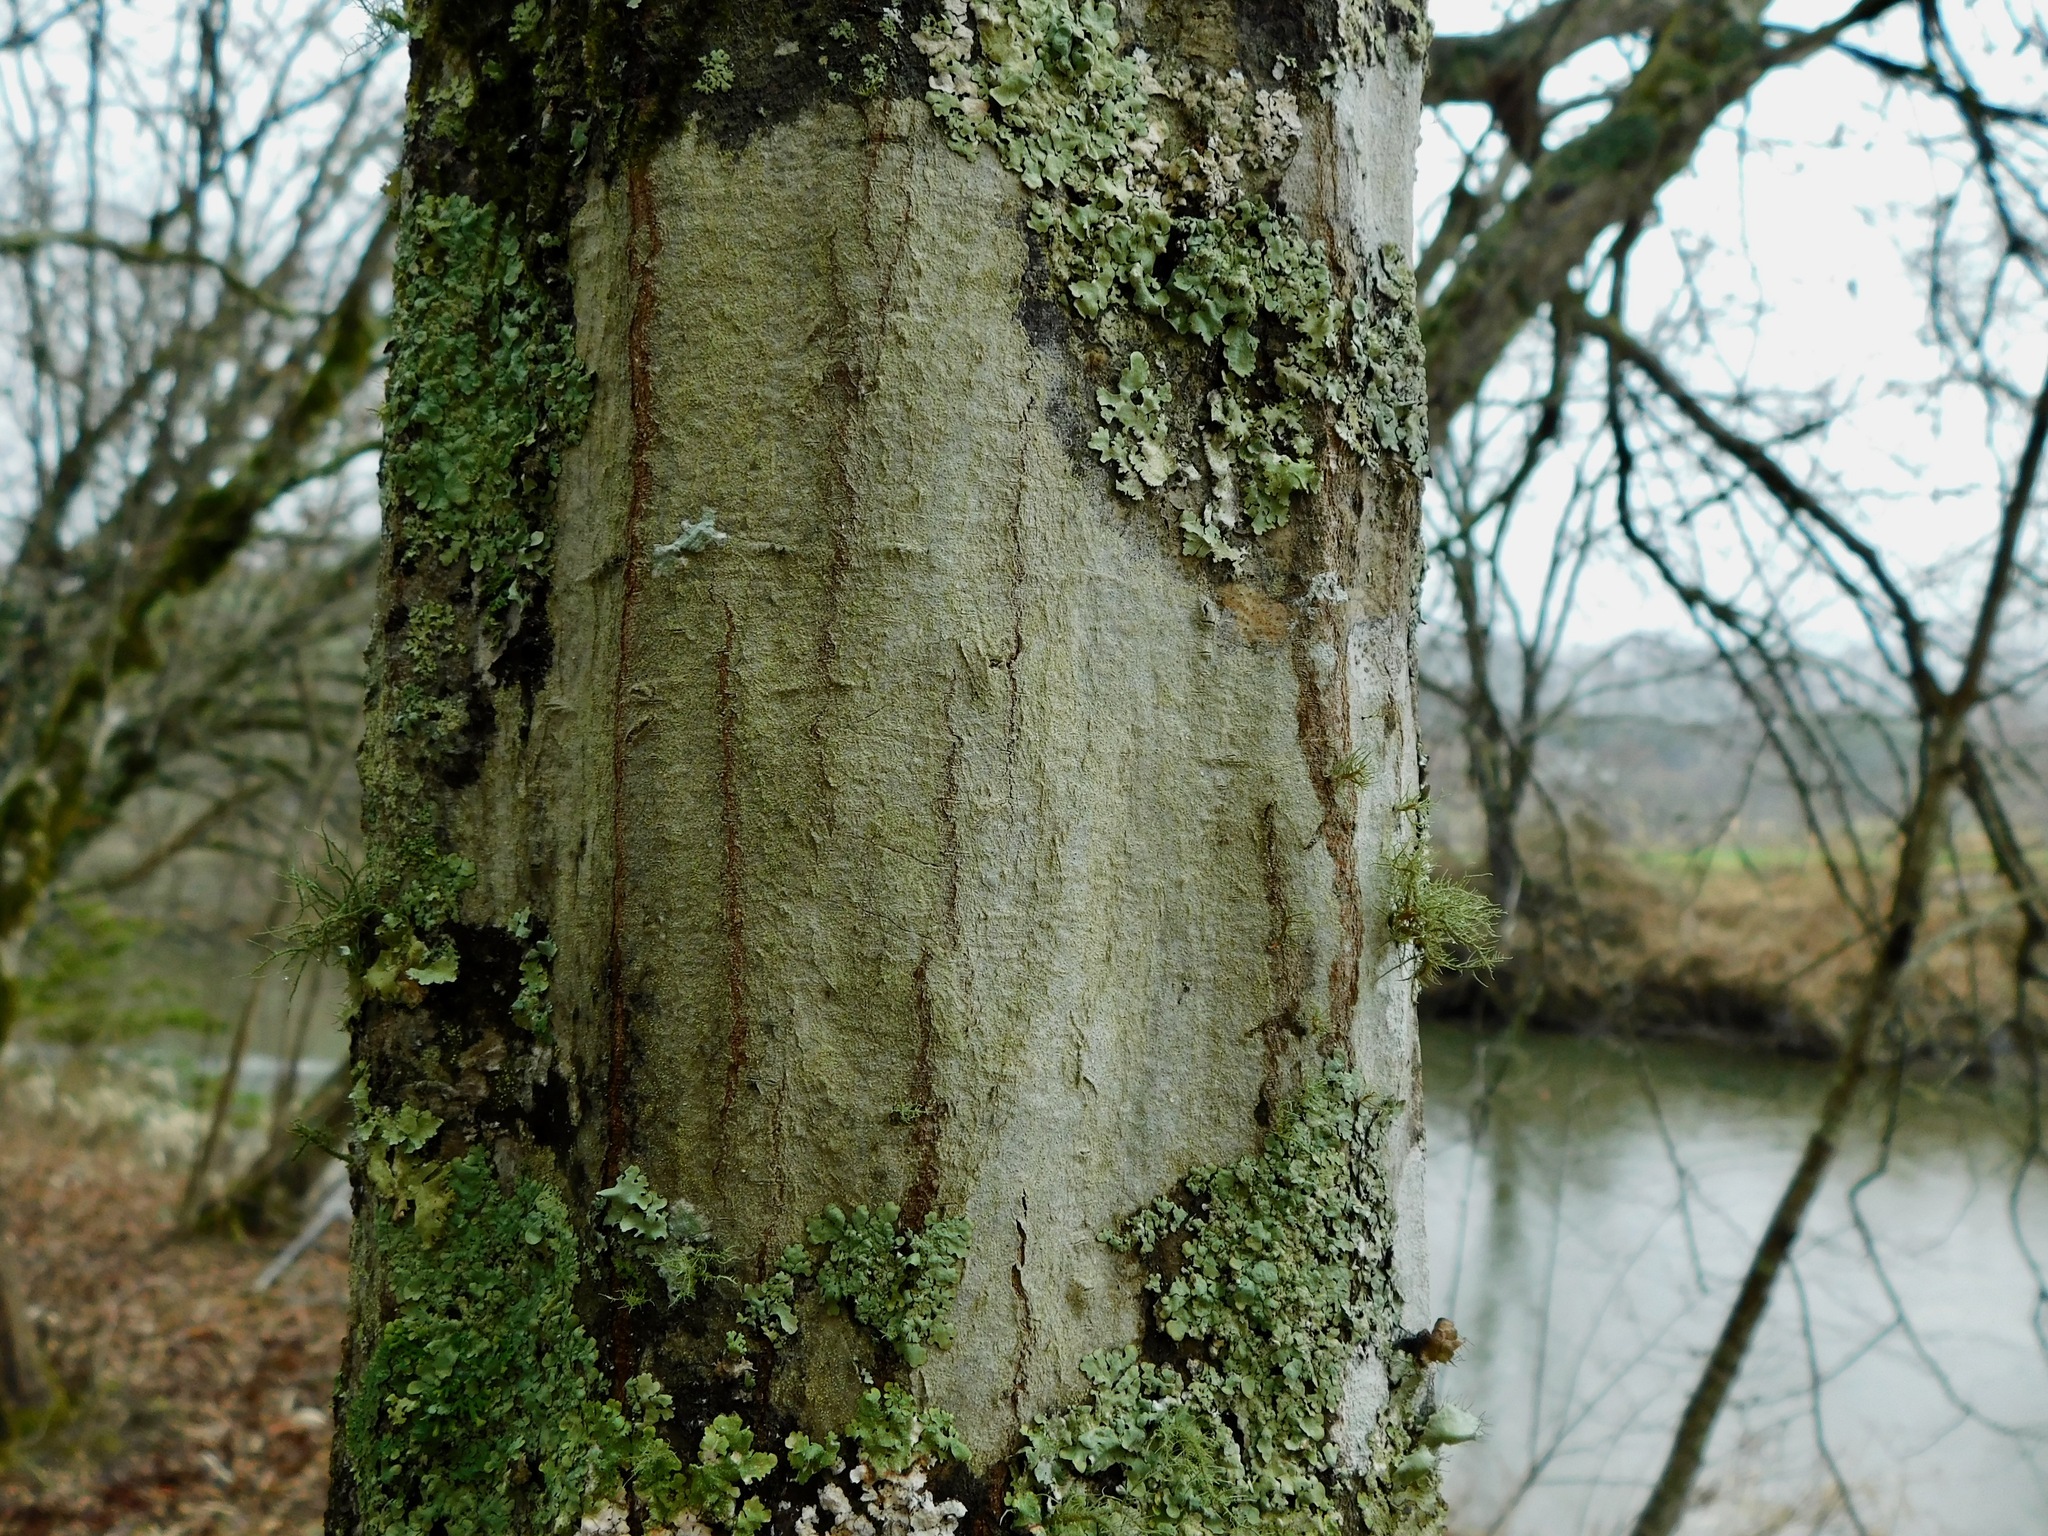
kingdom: Fungi
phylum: Ascomycota
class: Lecanoromycetes
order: Ostropales
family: Phlyctidaceae
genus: Phlyctis
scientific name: Phlyctis boliviensis
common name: Bark whitewash
